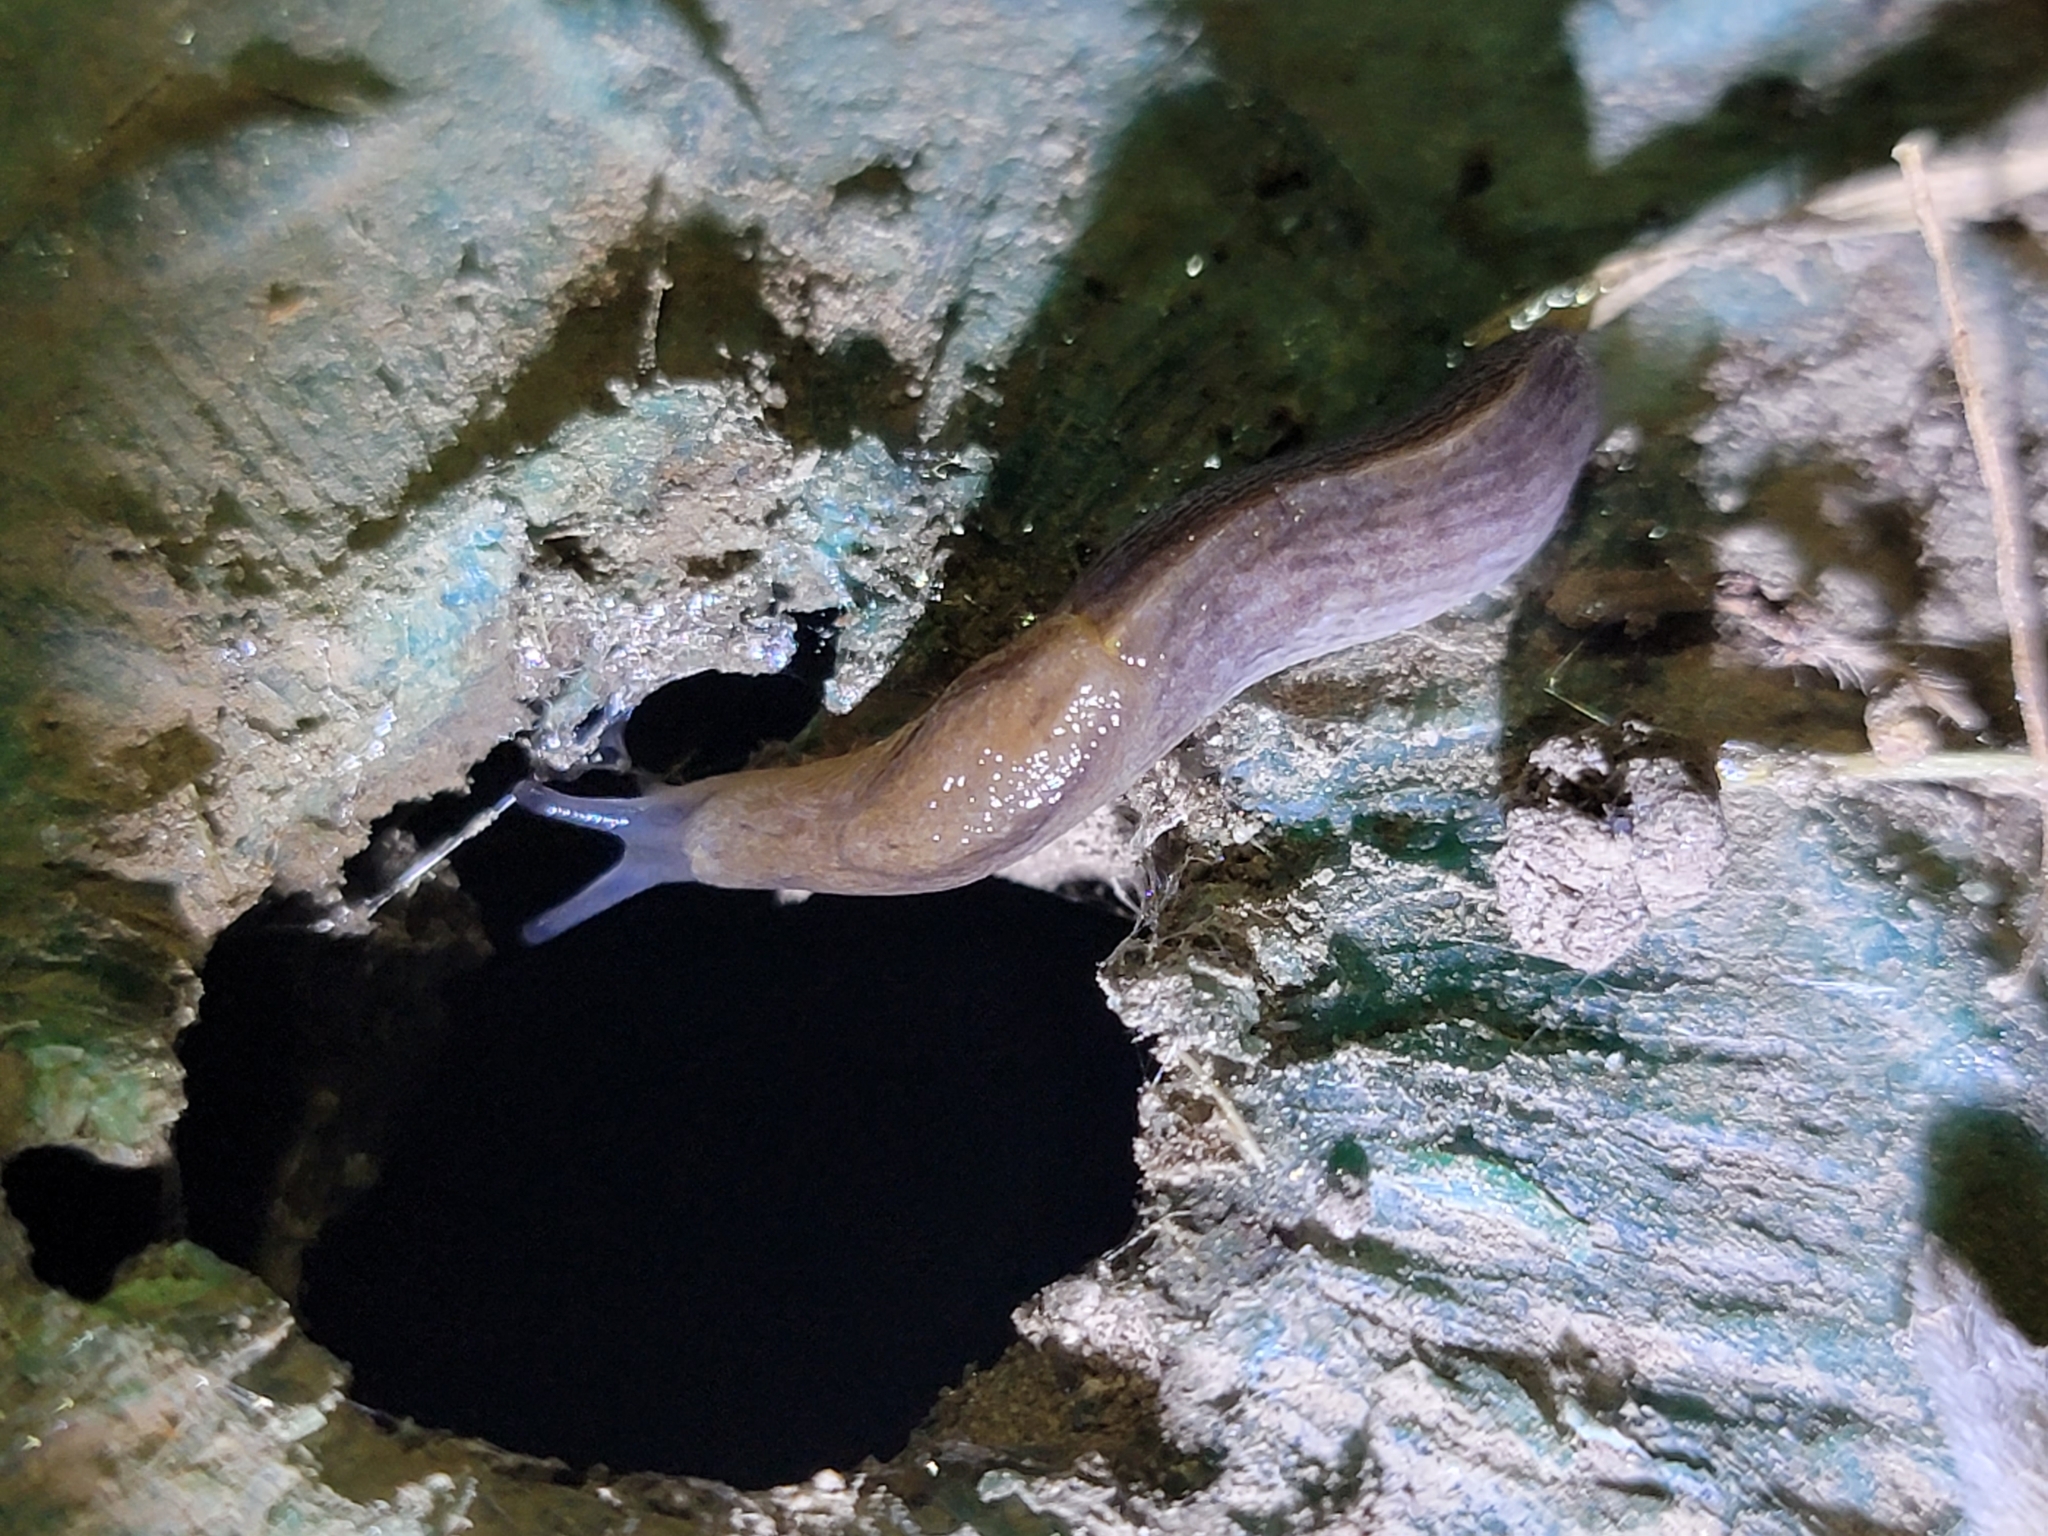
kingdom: Animalia
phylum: Mollusca
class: Gastropoda
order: Stylommatophora
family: Milacidae
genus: Milax
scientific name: Milax gagates
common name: Greenhouse slug
